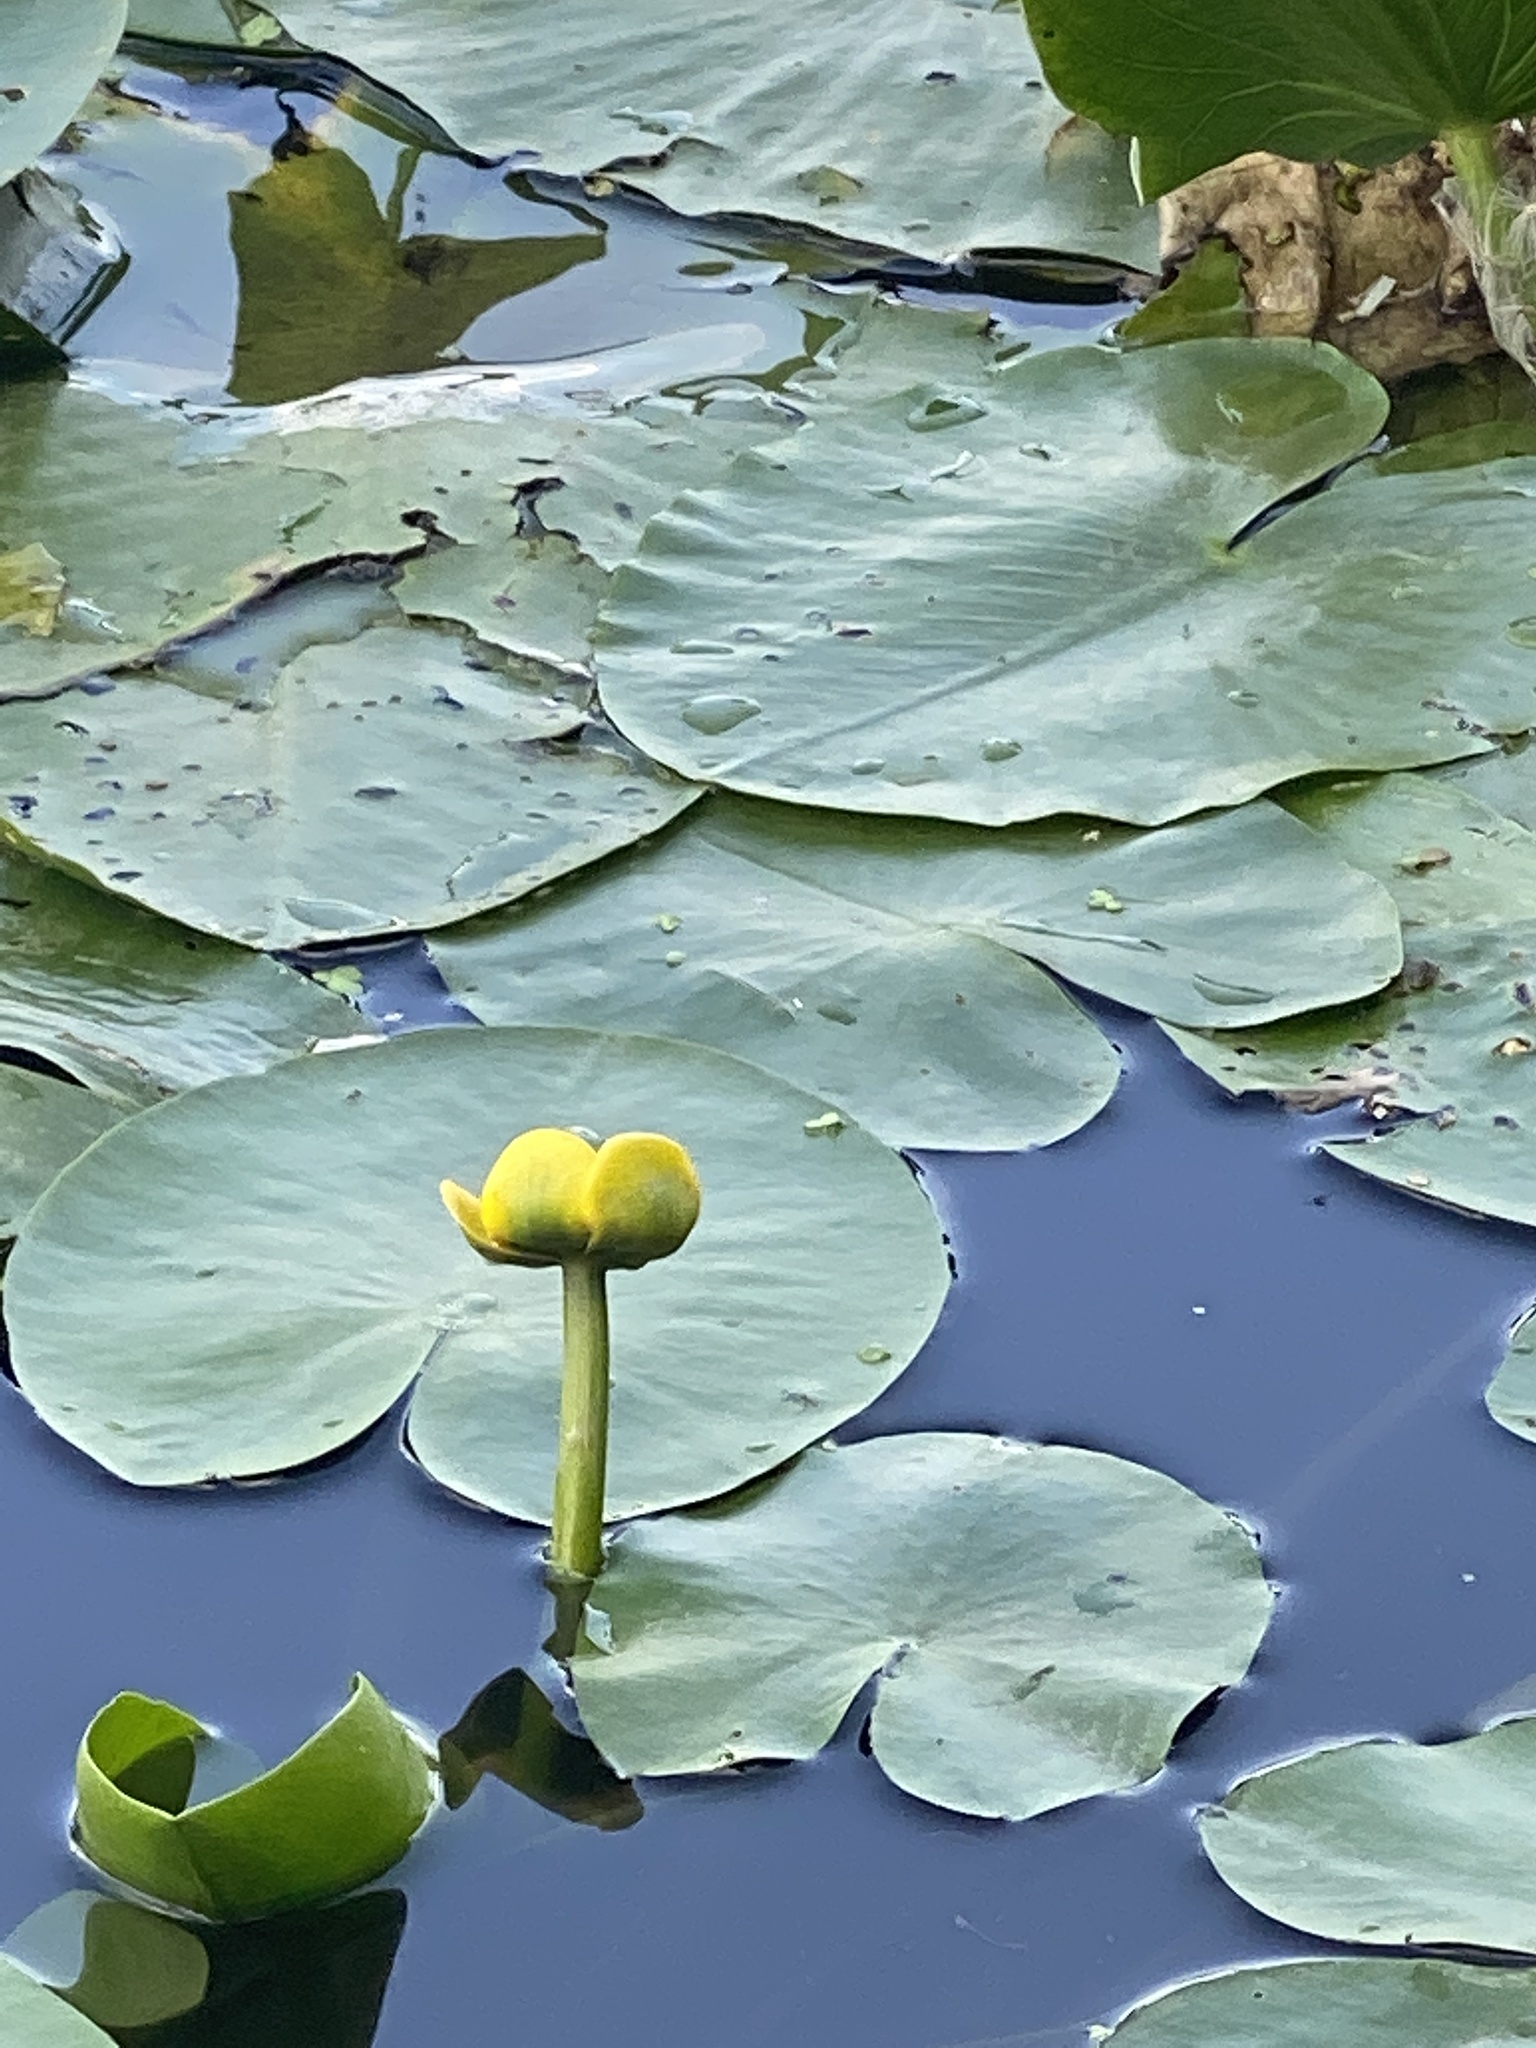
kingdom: Plantae
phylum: Tracheophyta
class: Magnoliopsida
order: Nymphaeales
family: Nymphaeaceae
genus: Nuphar
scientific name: Nuphar lutea
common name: Yellow water-lily
